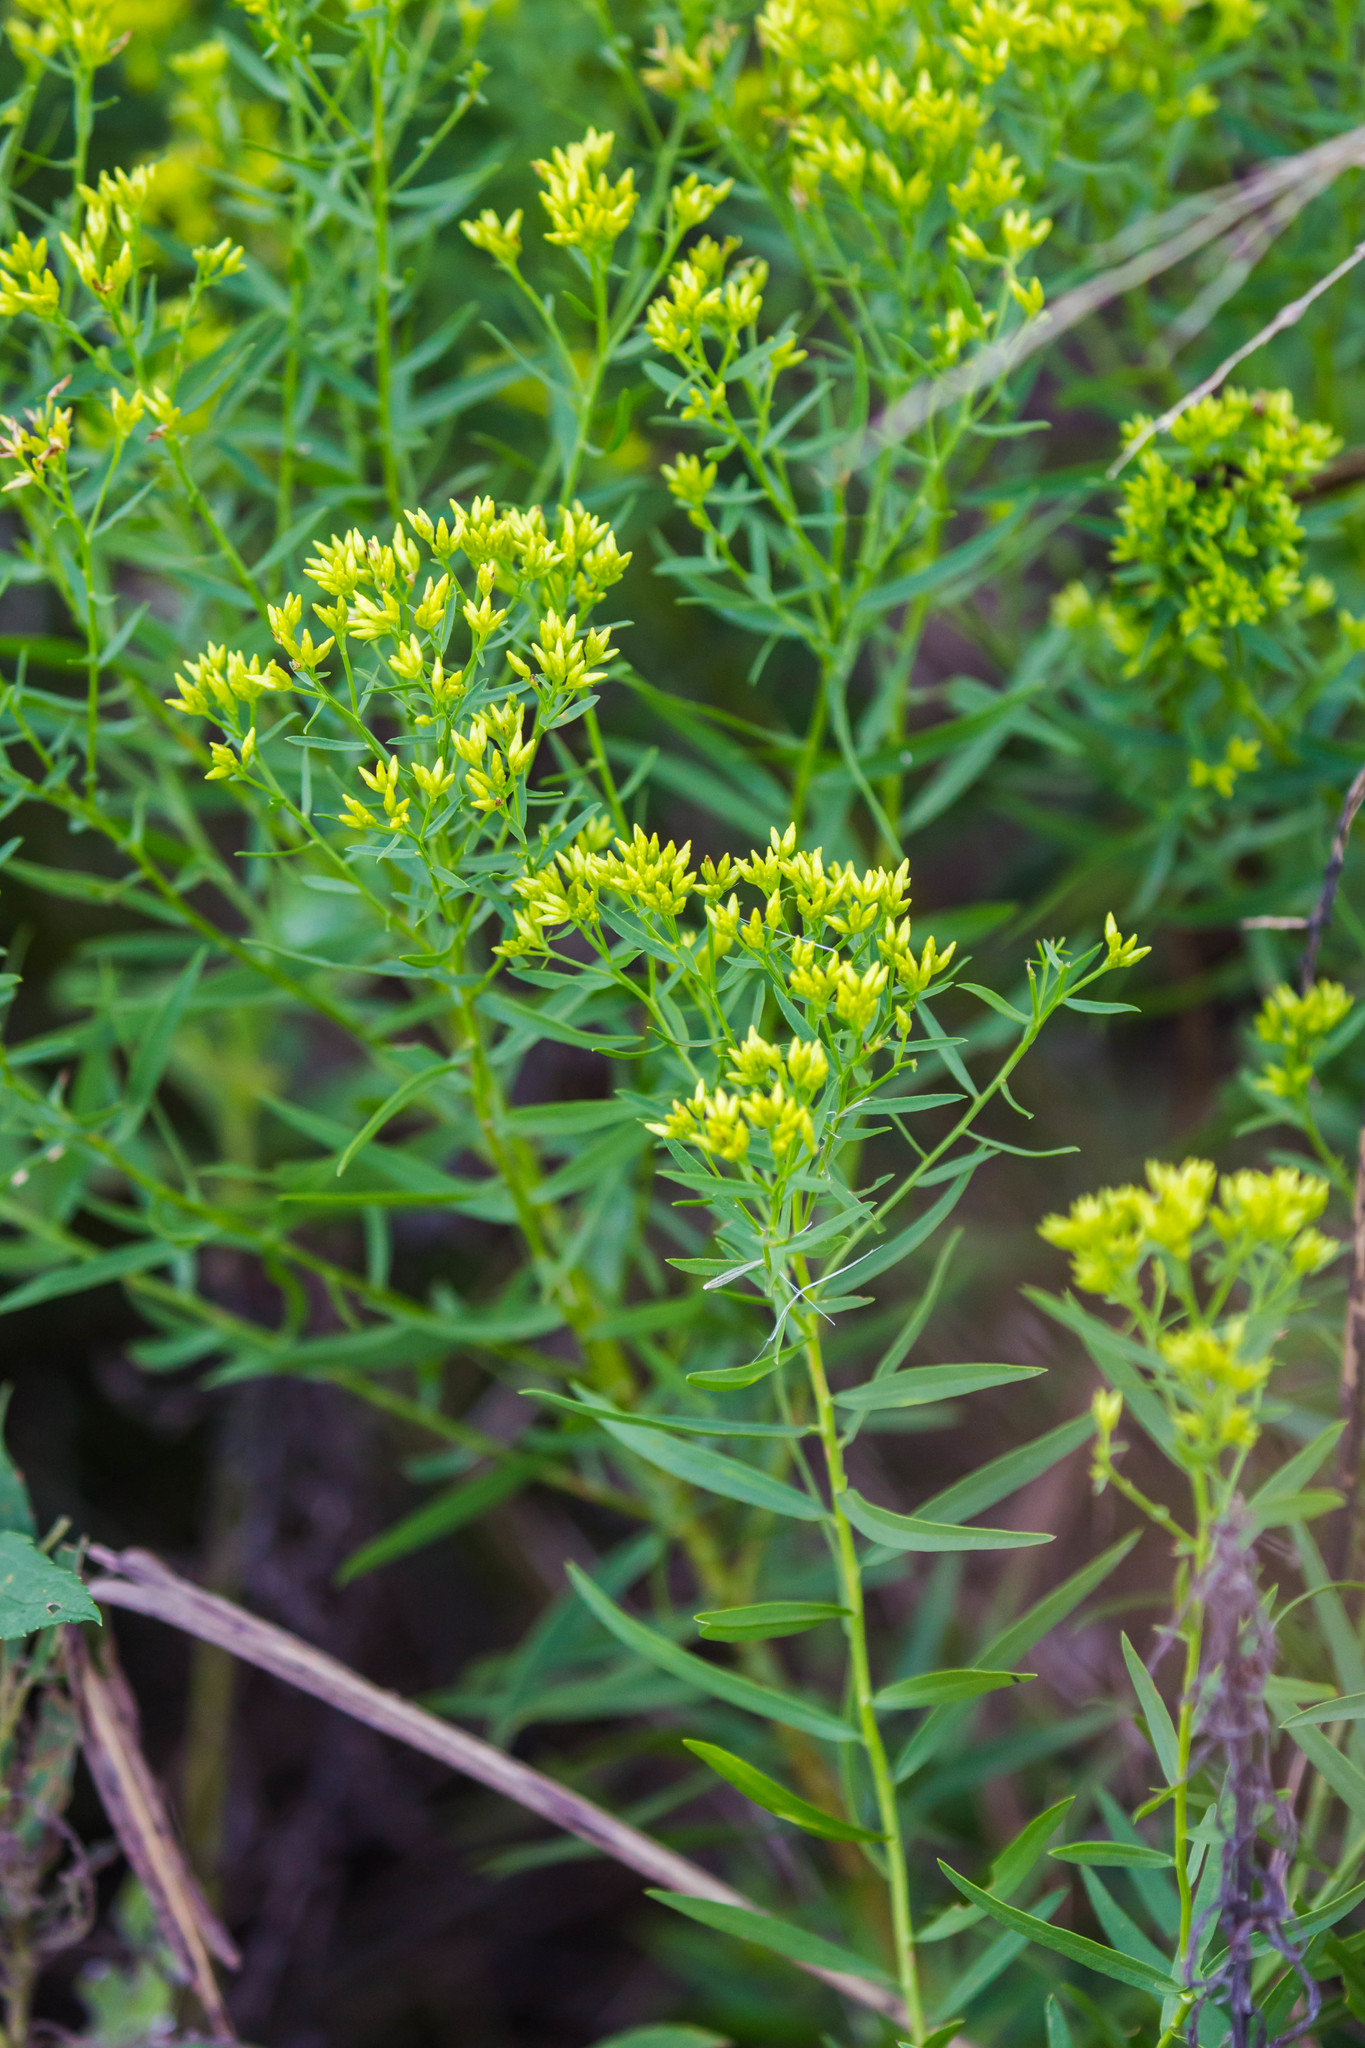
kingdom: Plantae
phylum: Tracheophyta
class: Magnoliopsida
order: Asterales
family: Asteraceae
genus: Euthamia
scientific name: Euthamia leptocephala
